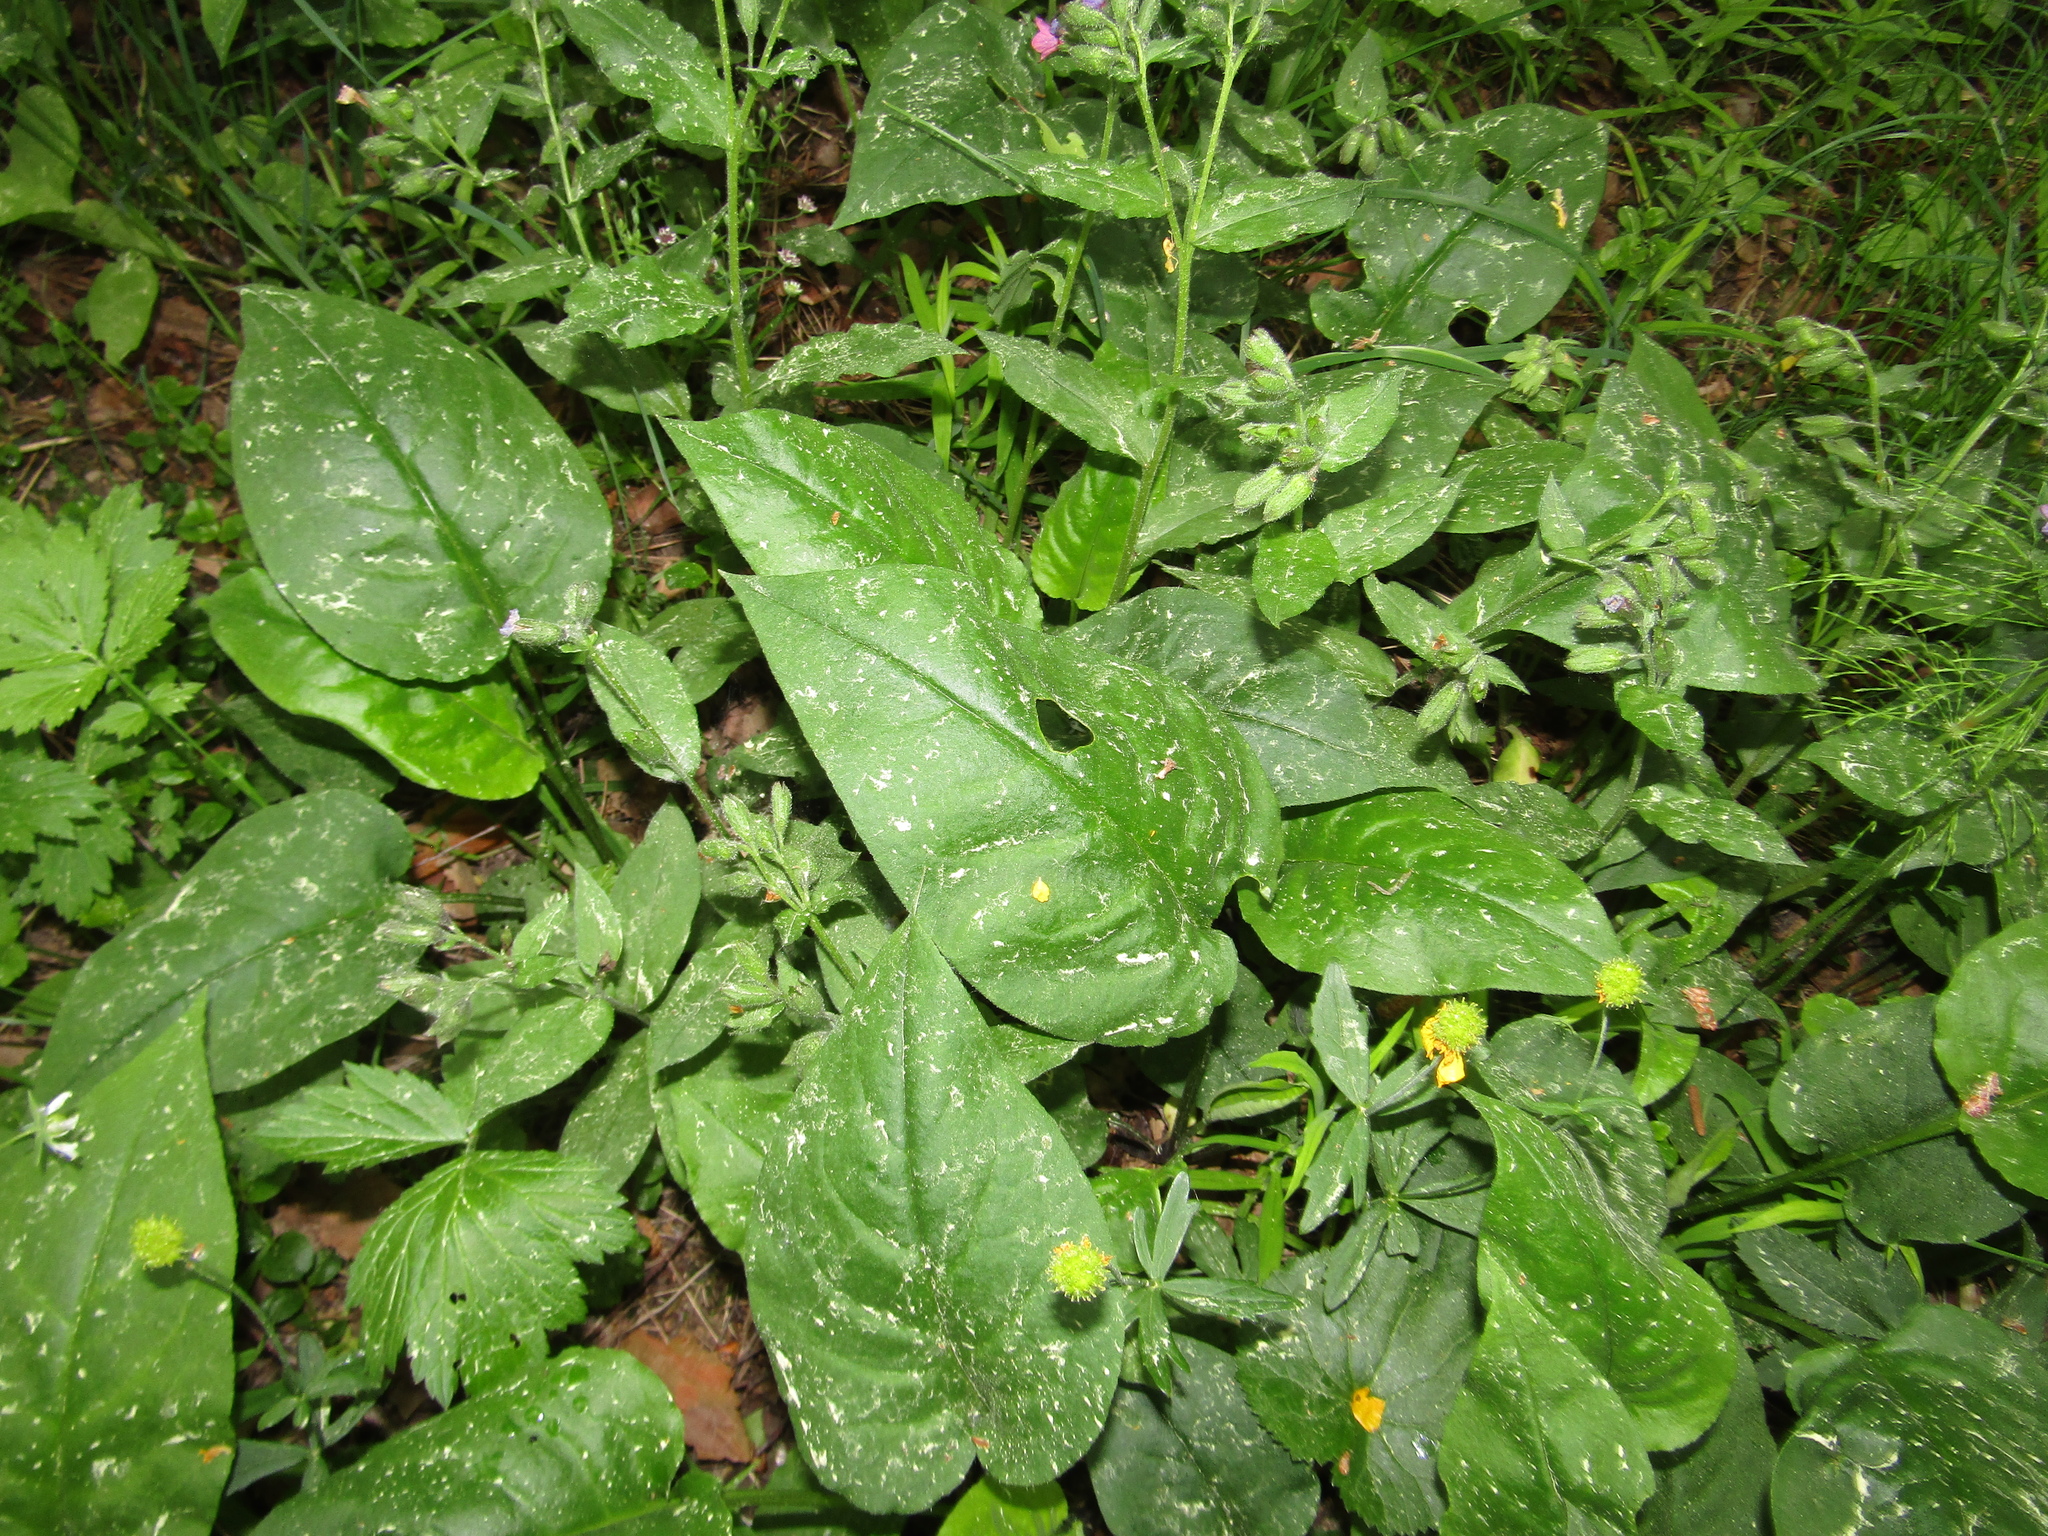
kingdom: Plantae
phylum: Tracheophyta
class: Magnoliopsida
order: Boraginales
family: Boraginaceae
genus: Pulmonaria
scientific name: Pulmonaria obscura
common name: Suffolk lungwort
